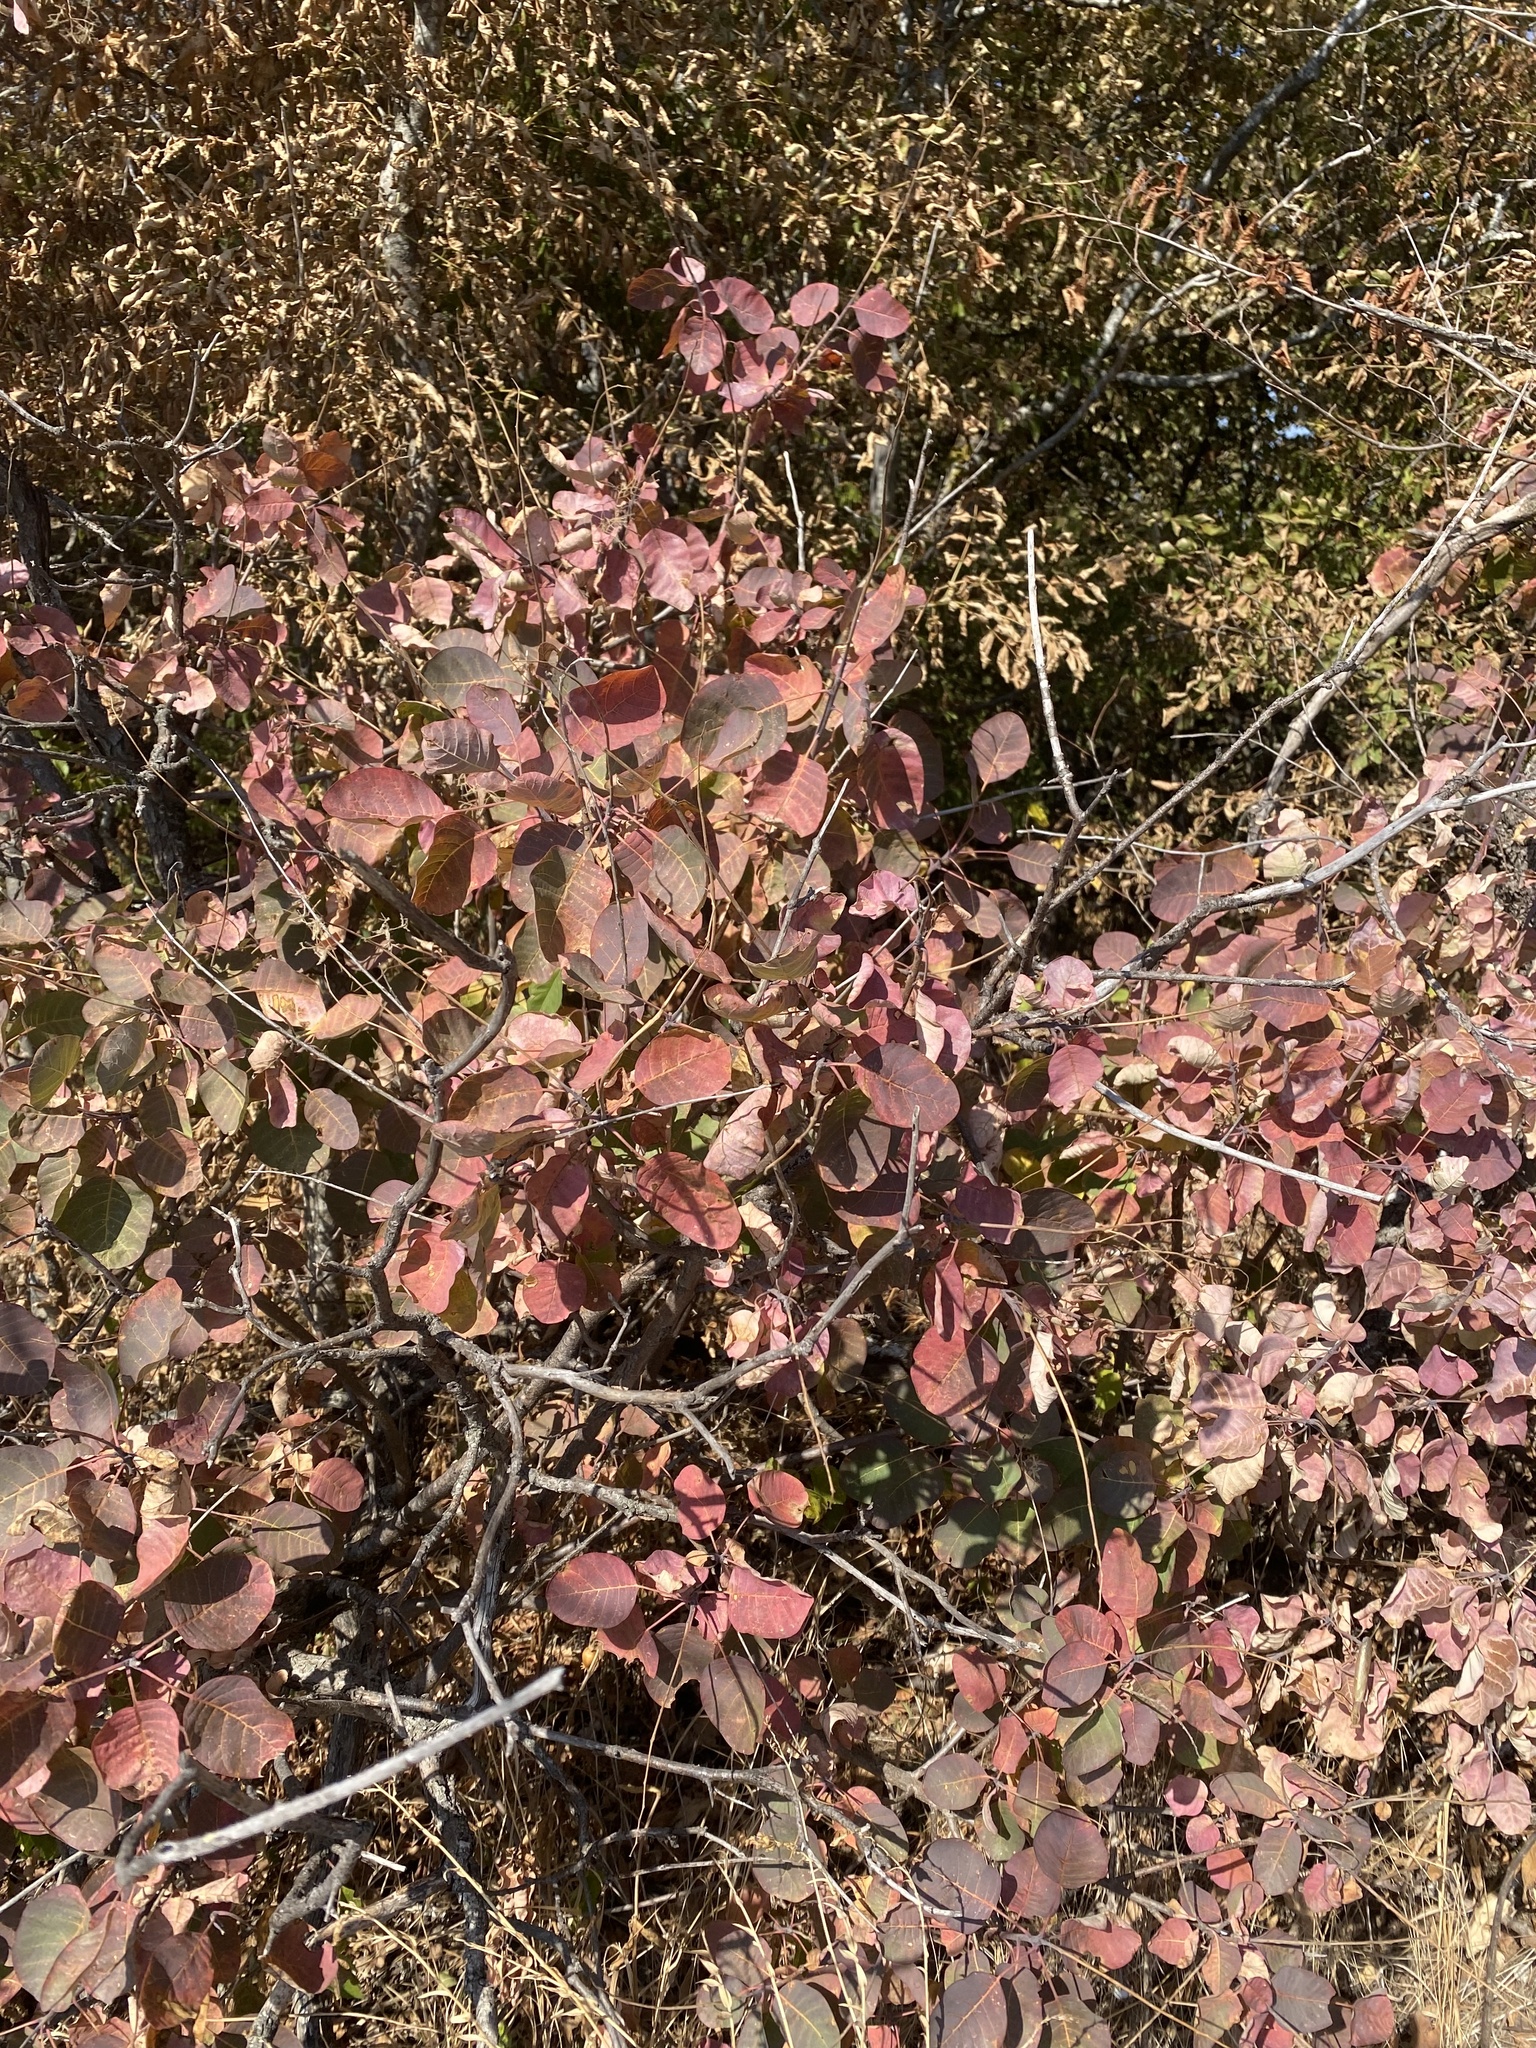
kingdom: Plantae
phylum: Tracheophyta
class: Magnoliopsida
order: Sapindales
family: Anacardiaceae
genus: Cotinus
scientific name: Cotinus coggygria
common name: Smoke-tree
